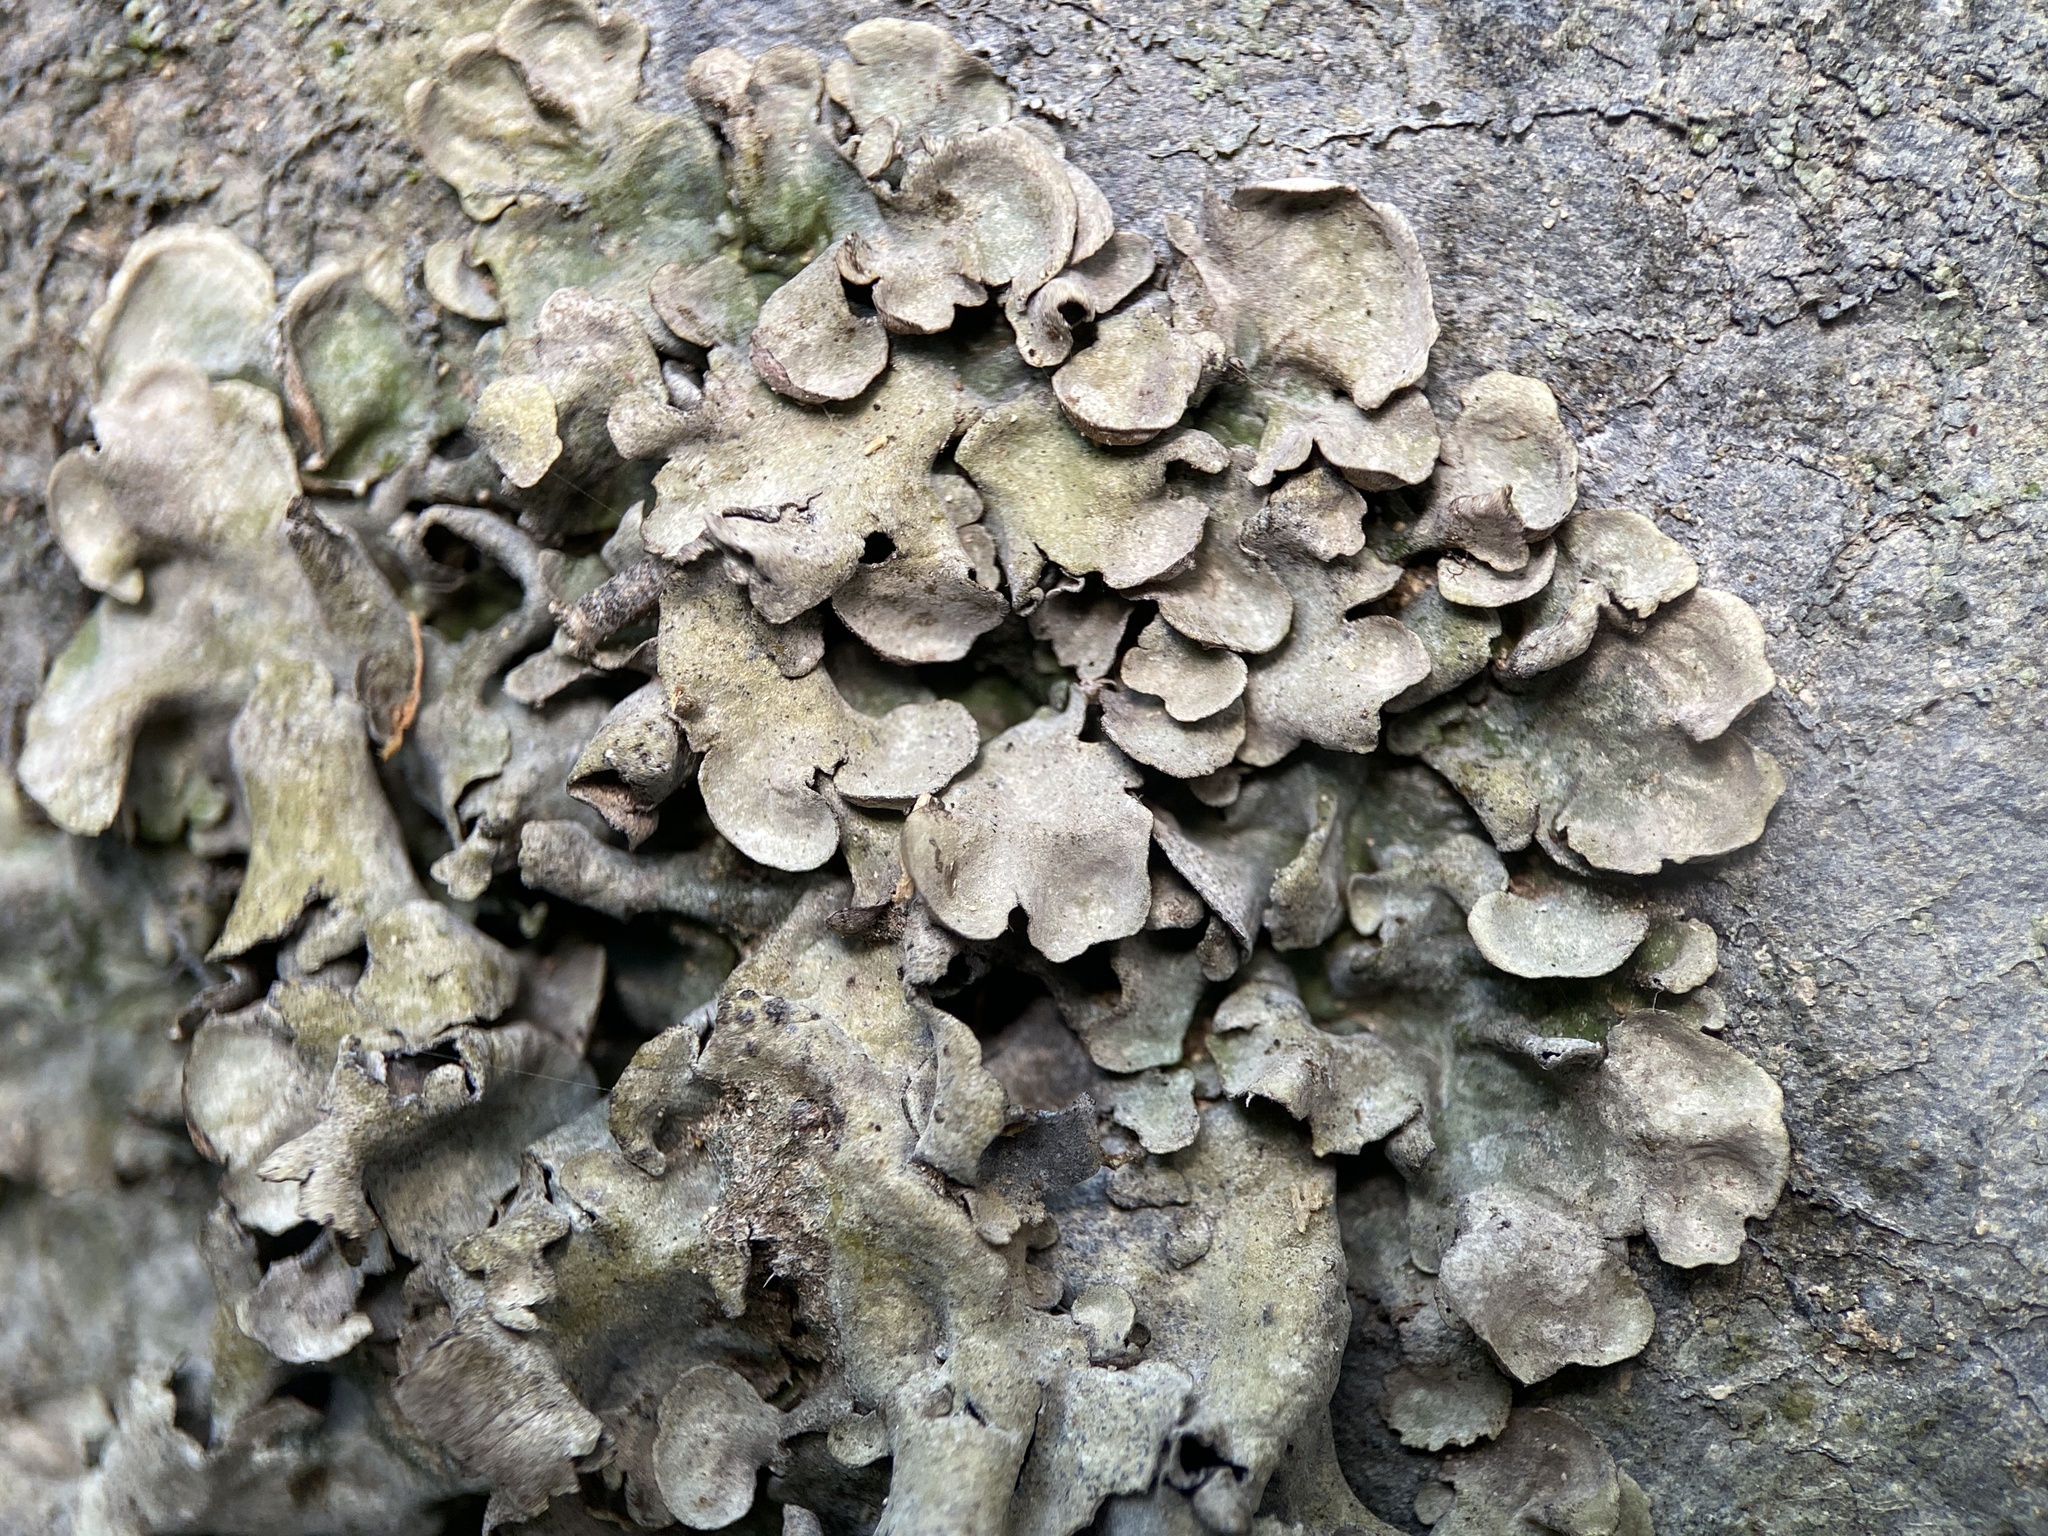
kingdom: Fungi
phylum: Ascomycota
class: Eurotiomycetes
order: Verrucariales
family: Verrucariaceae
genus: Dermatocarpon
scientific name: Dermatocarpon luridum
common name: Brook stippleback lichen
